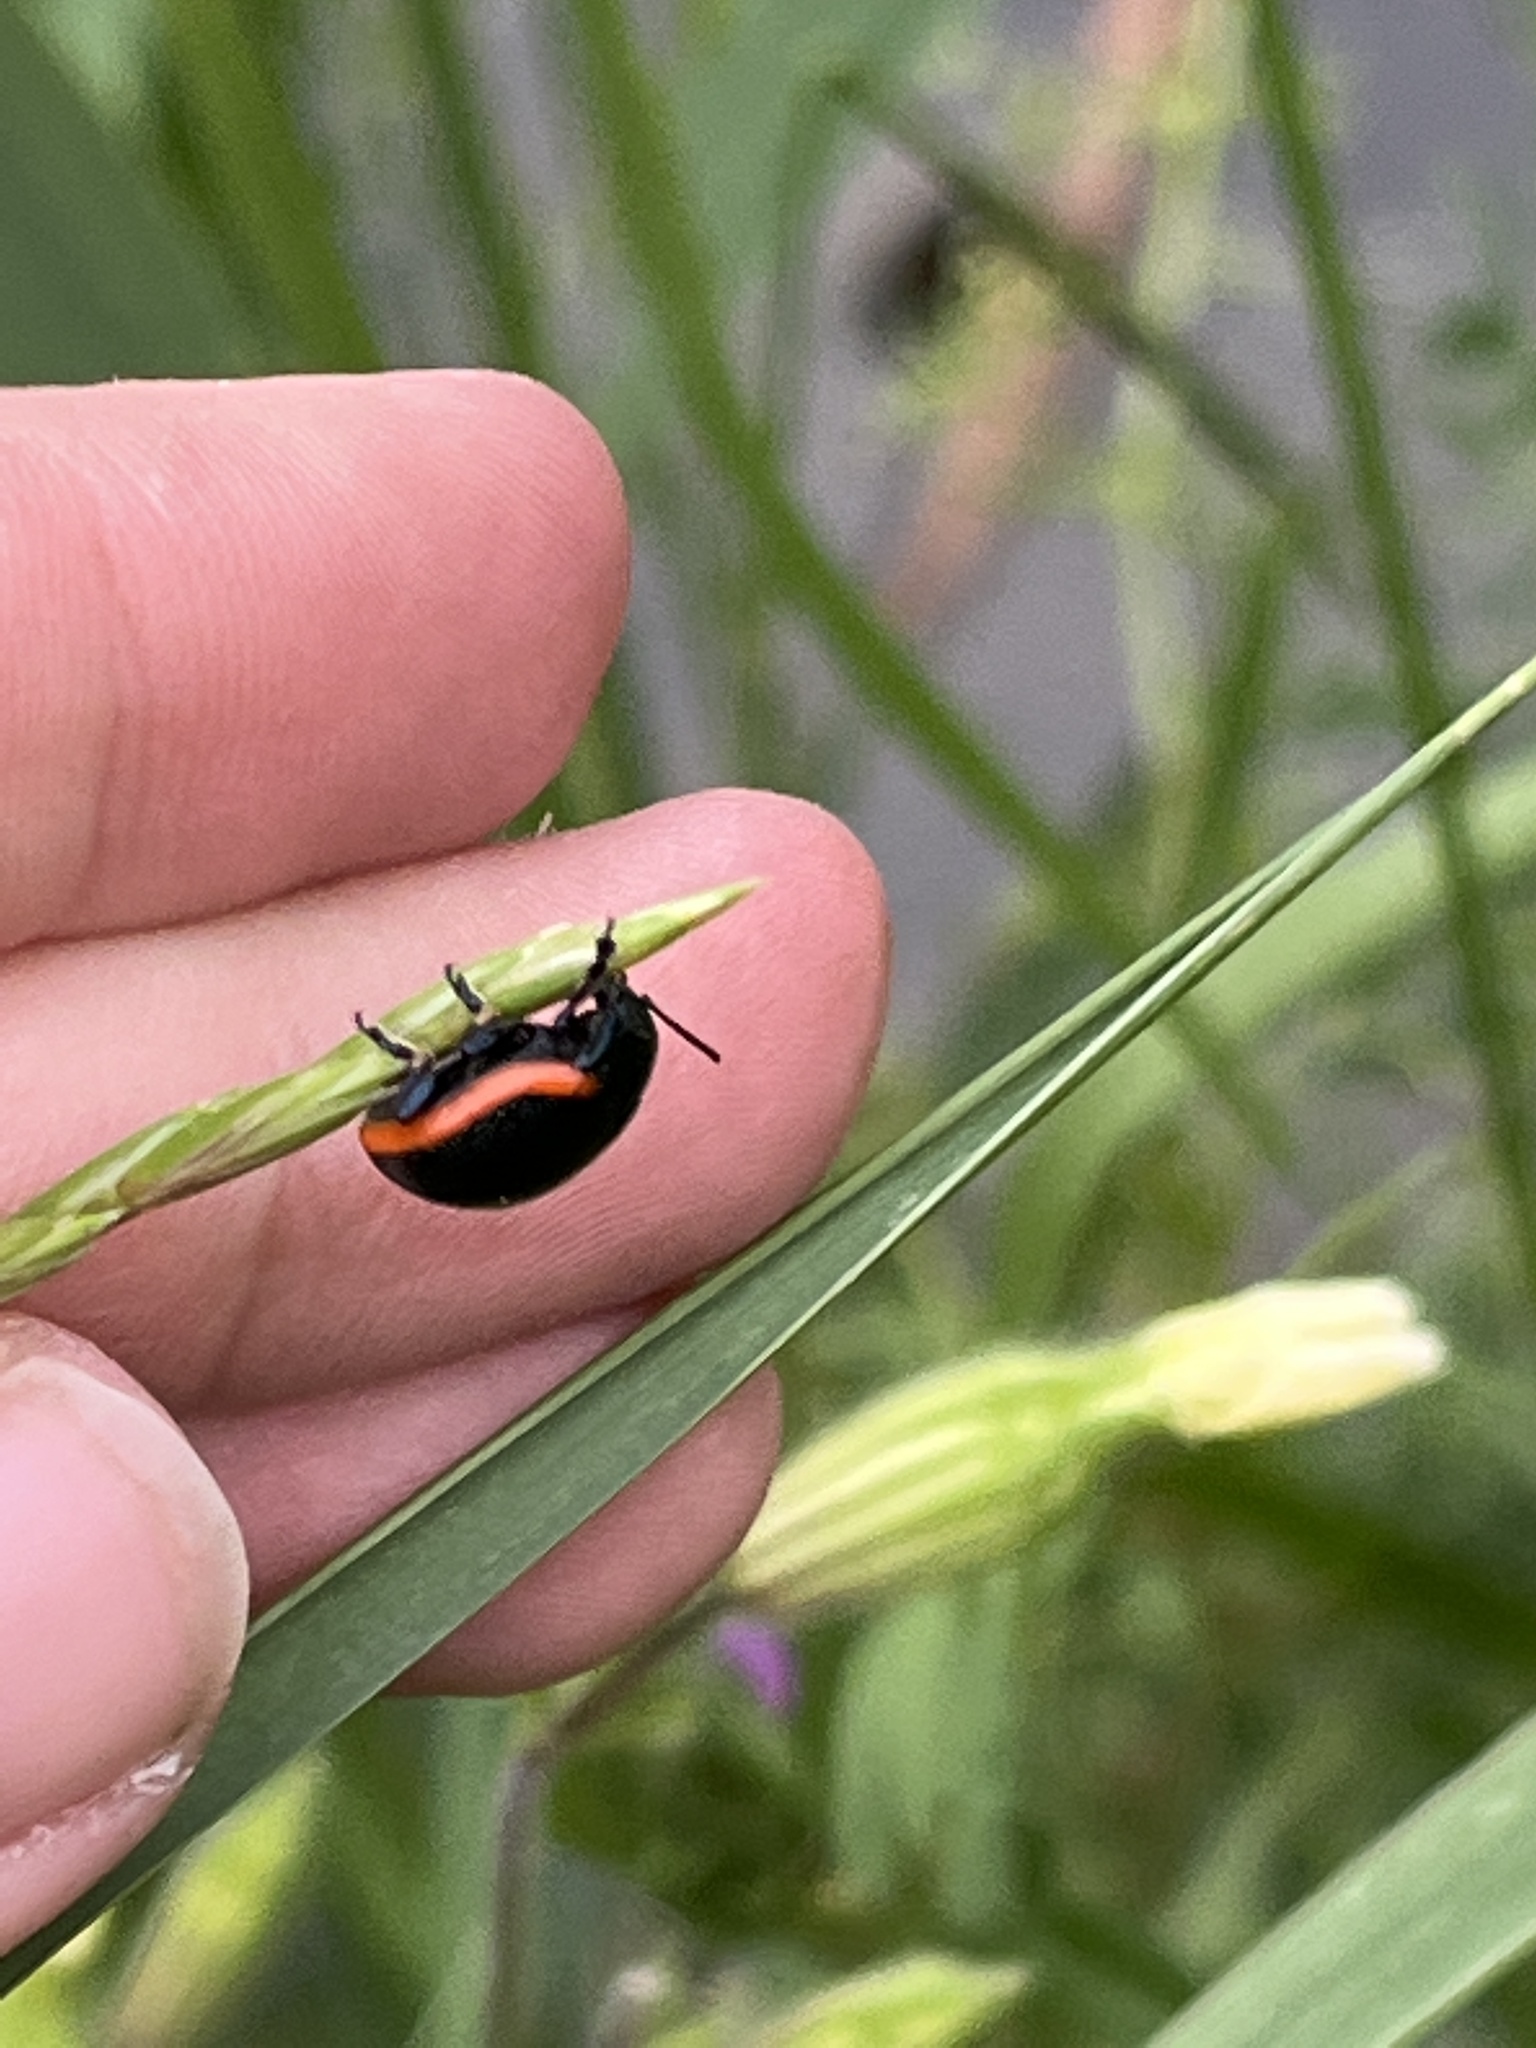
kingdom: Animalia
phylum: Arthropoda
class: Insecta
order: Coleoptera
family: Chrysomelidae
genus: Chrysolina
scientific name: Chrysolina rossia
